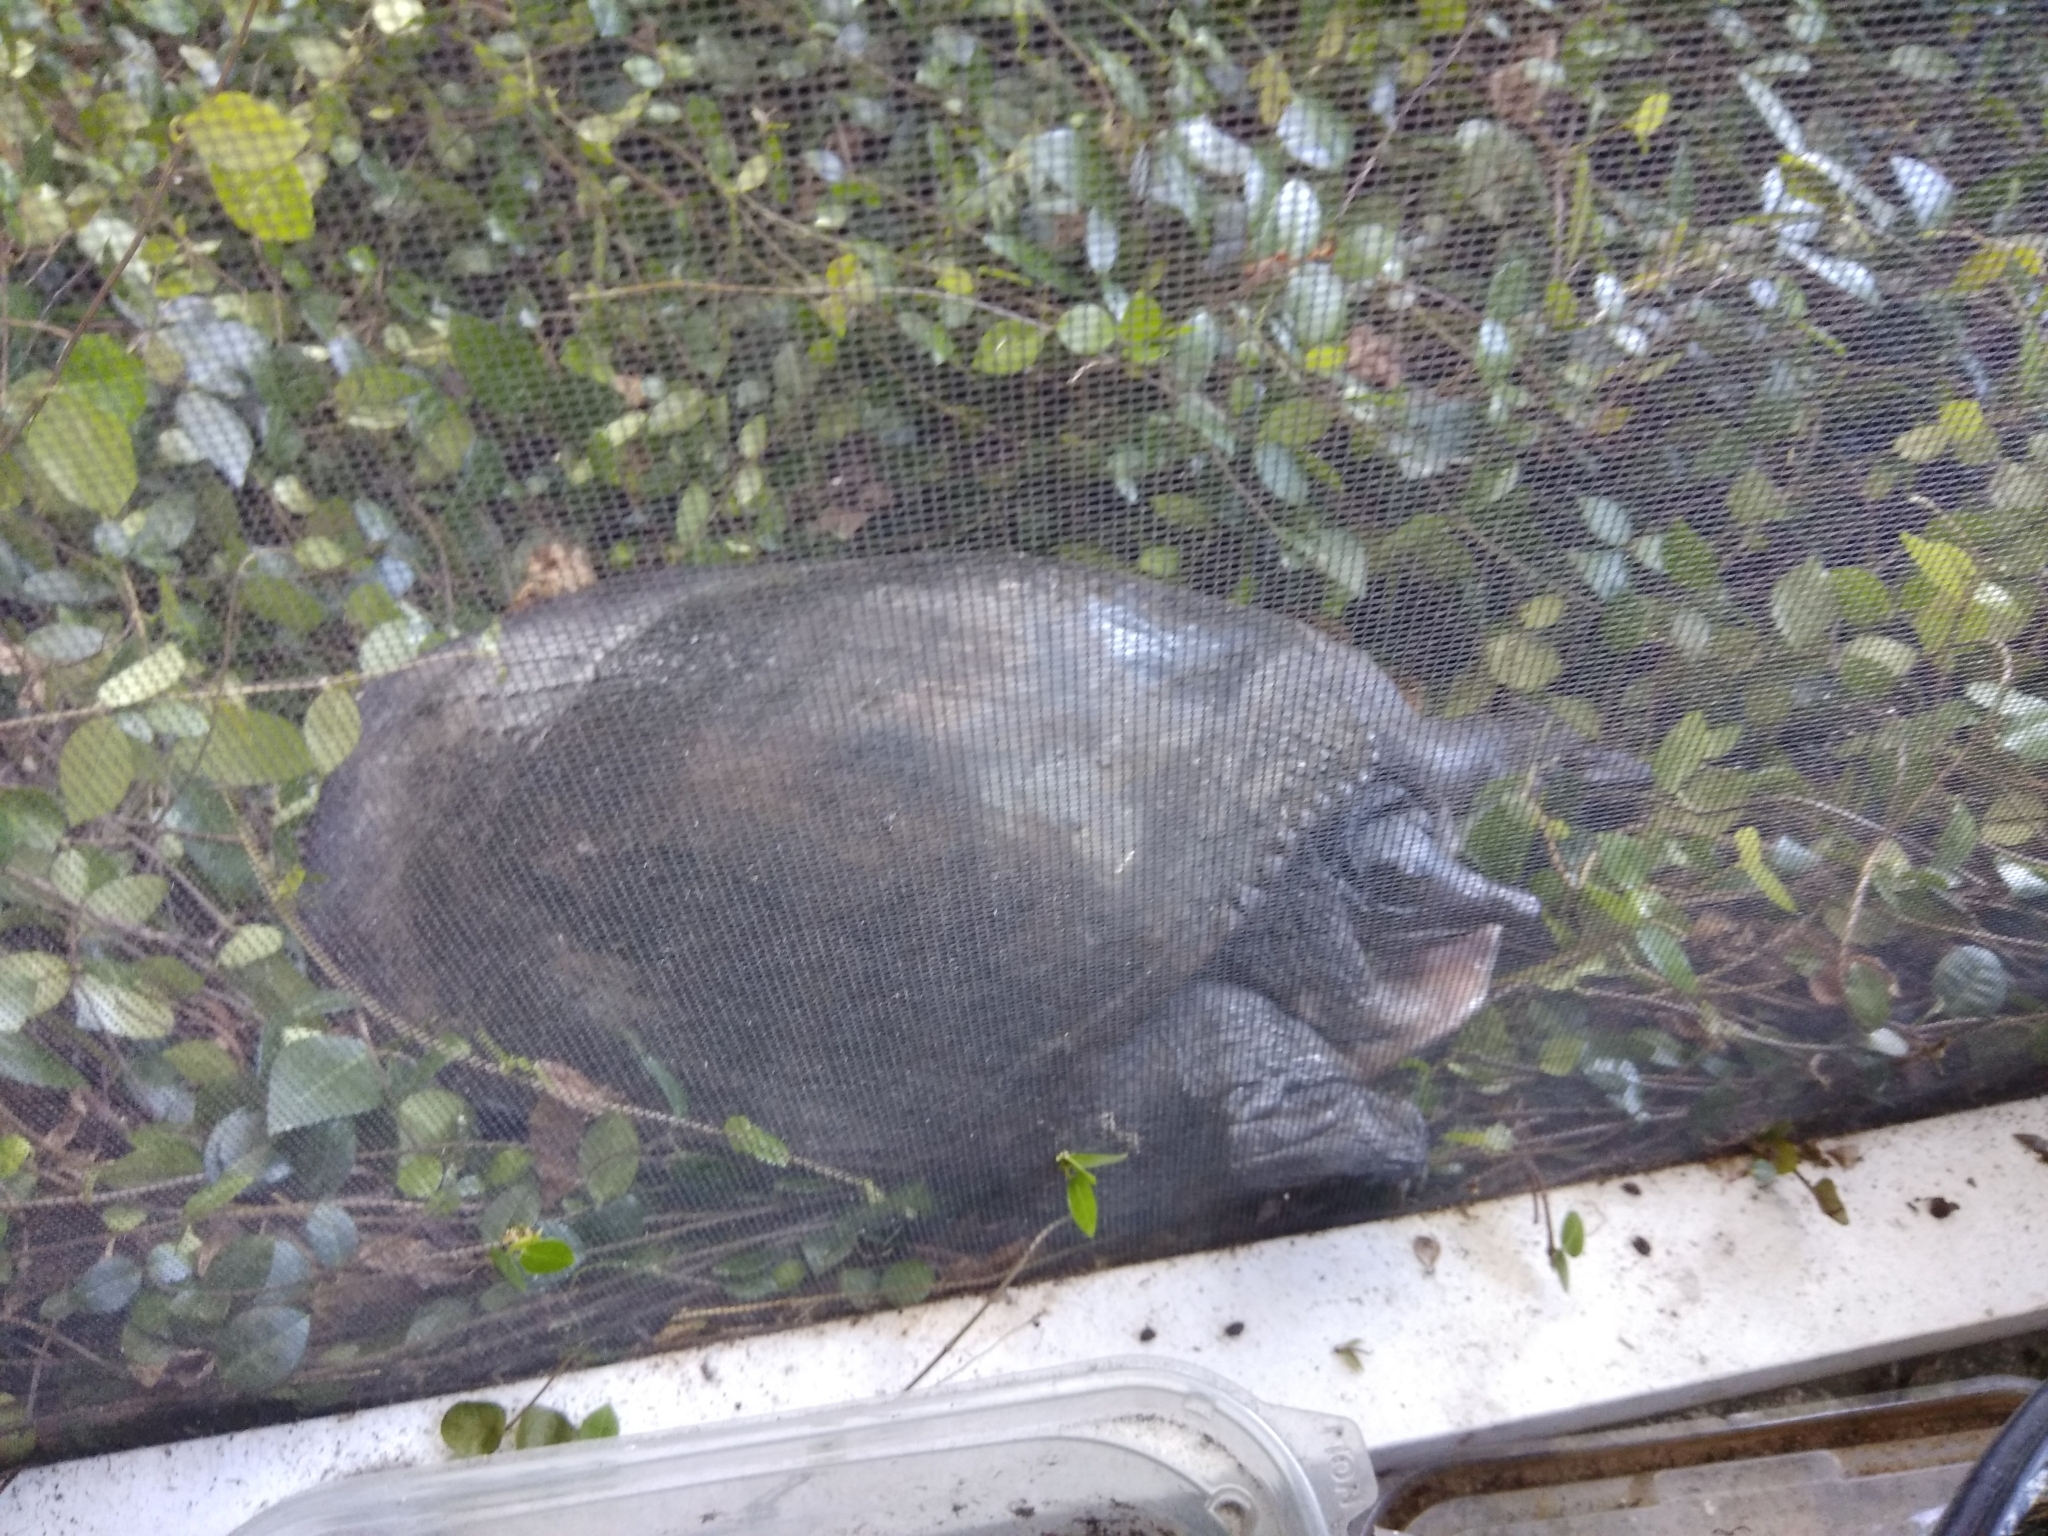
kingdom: Animalia
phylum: Chordata
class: Testudines
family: Trionychidae
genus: Apalone
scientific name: Apalone ferox
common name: Florida softshell turtle
